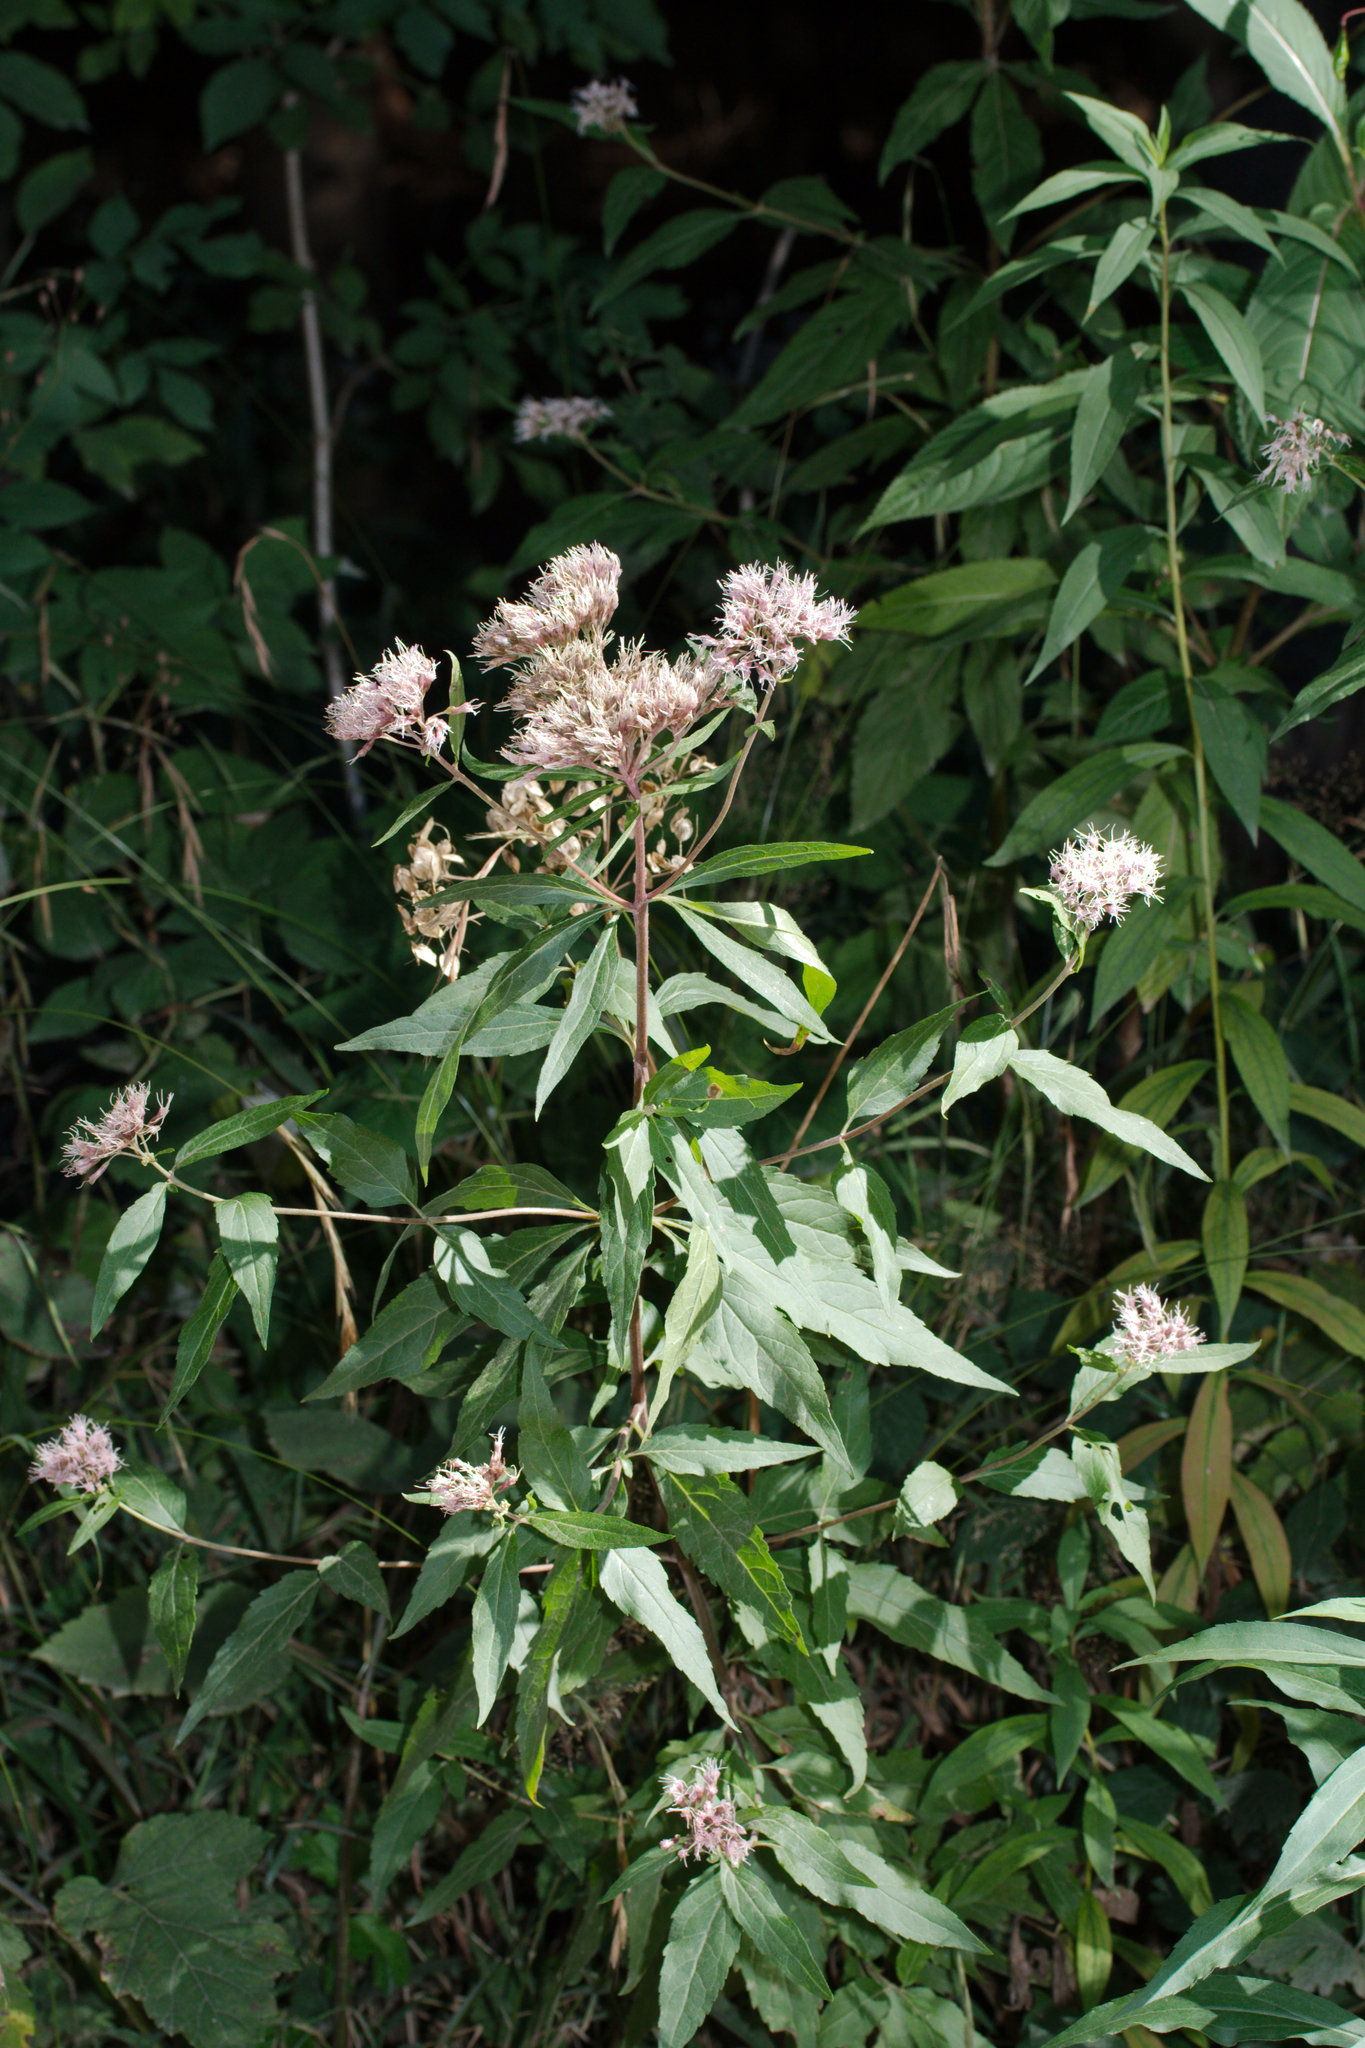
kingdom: Plantae
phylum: Tracheophyta
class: Magnoliopsida
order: Asterales
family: Asteraceae
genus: Eupatorium
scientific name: Eupatorium cannabinum
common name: Hemp-agrimony
